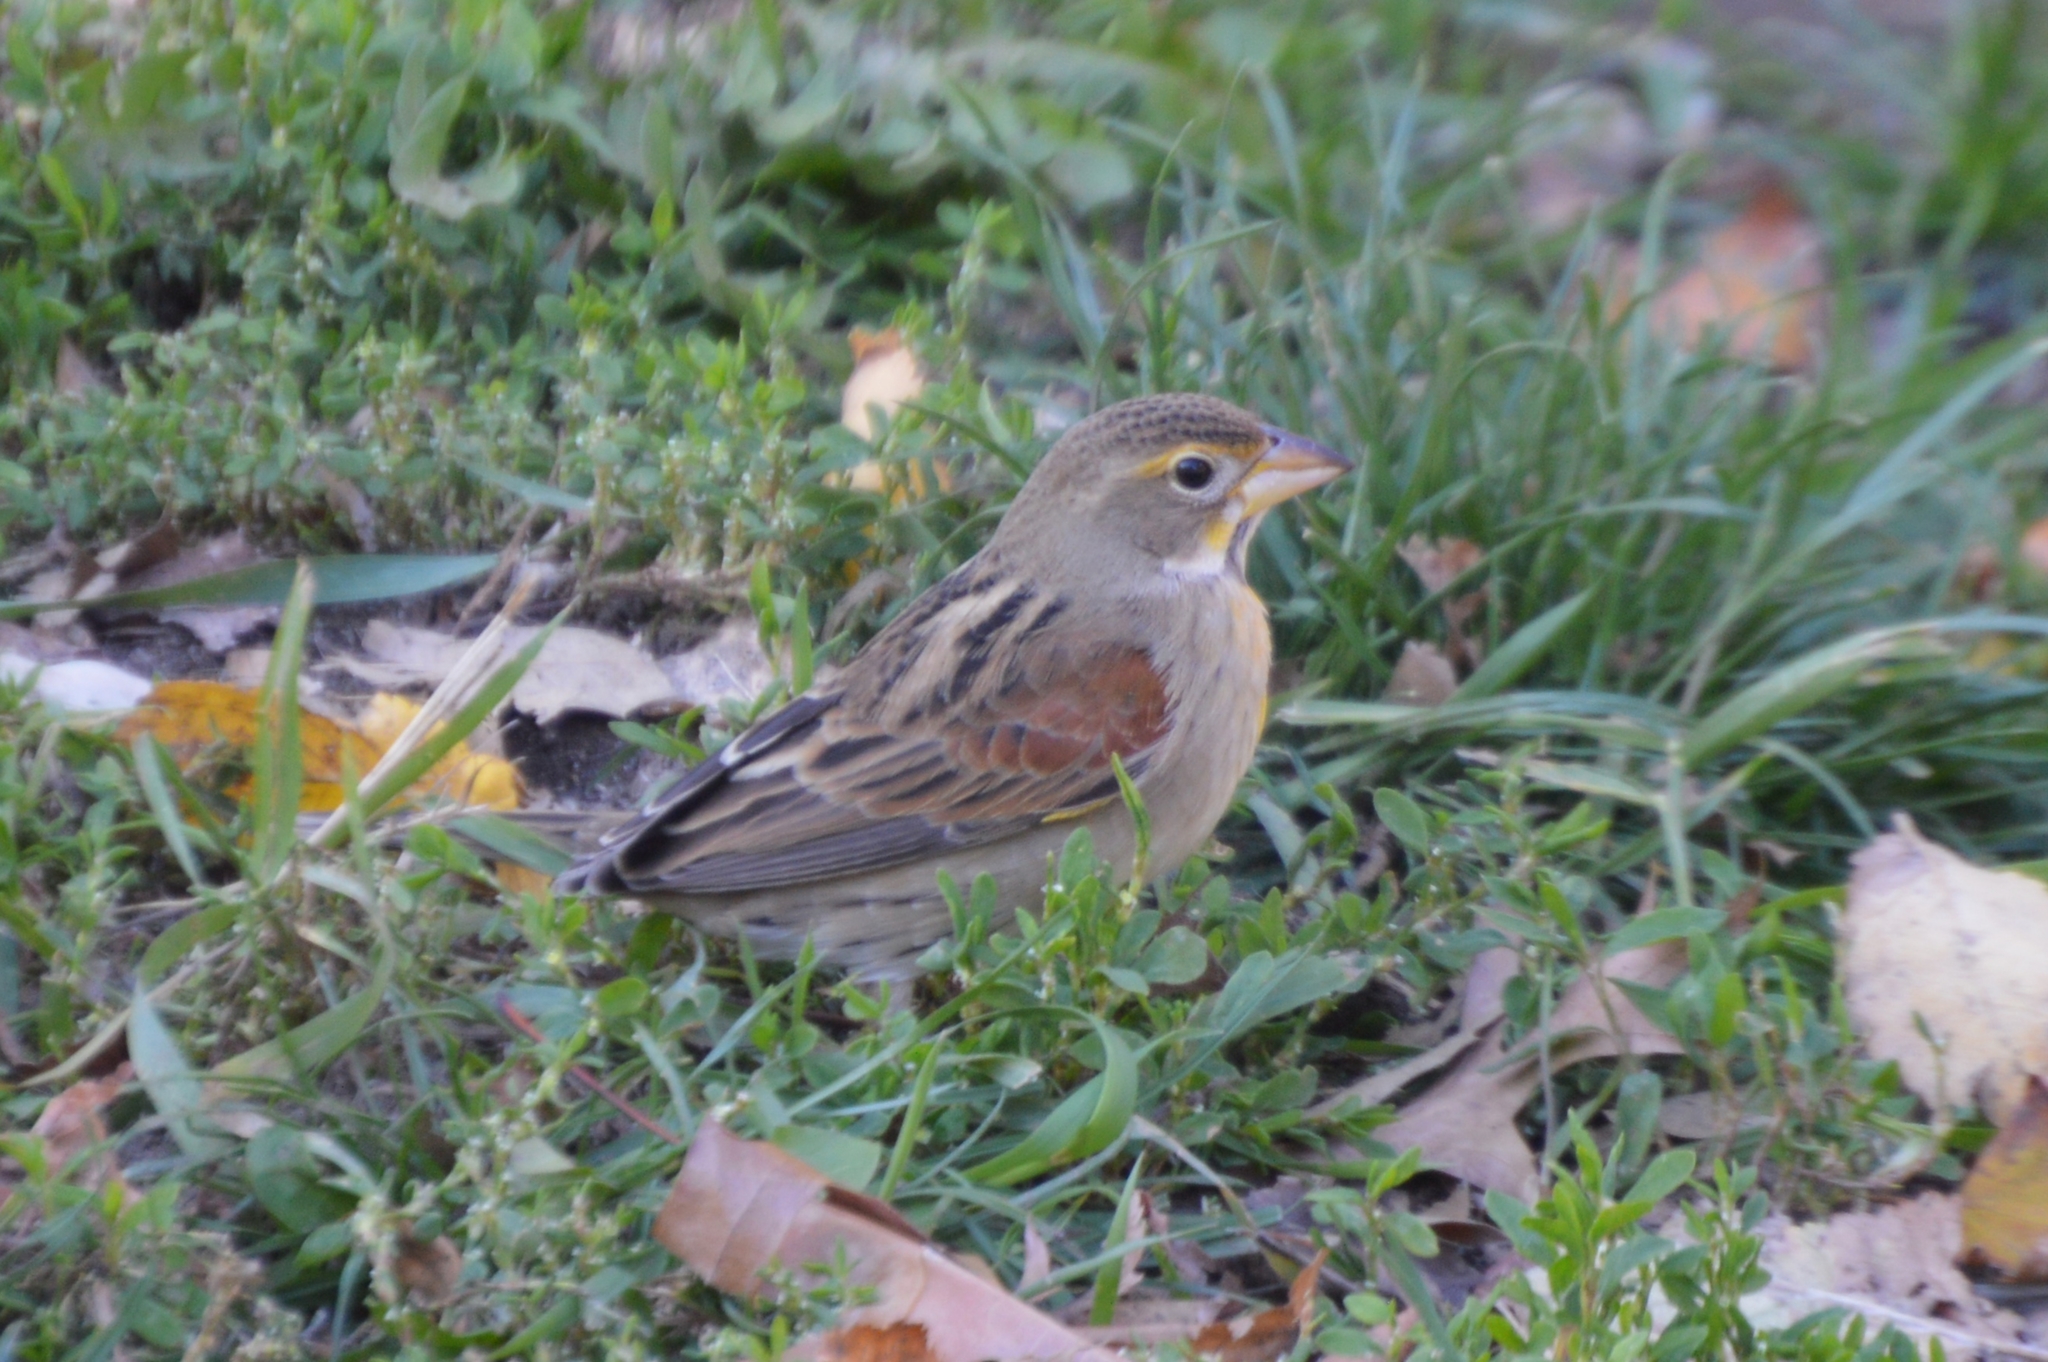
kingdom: Animalia
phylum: Chordata
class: Aves
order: Passeriformes
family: Cardinalidae
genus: Spiza
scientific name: Spiza americana
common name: Dickcissel
